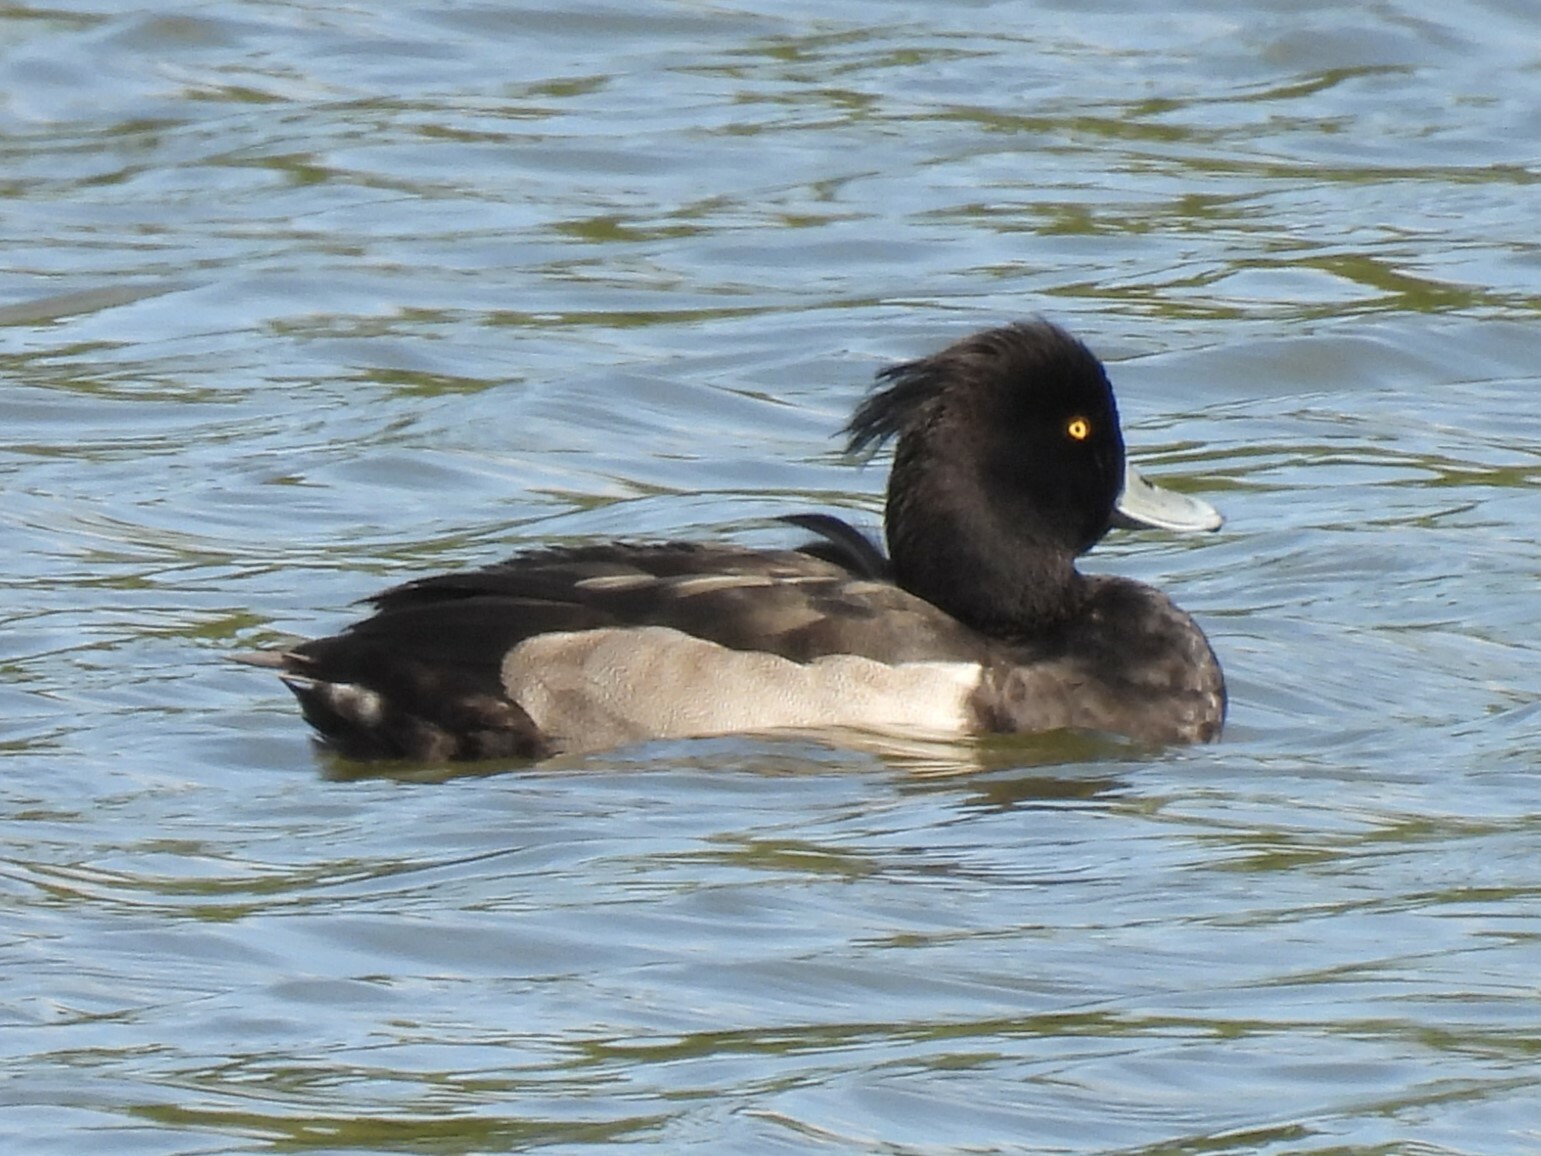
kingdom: Animalia
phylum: Chordata
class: Aves
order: Anseriformes
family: Anatidae
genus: Aythya
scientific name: Aythya fuligula
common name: Tufted duck
